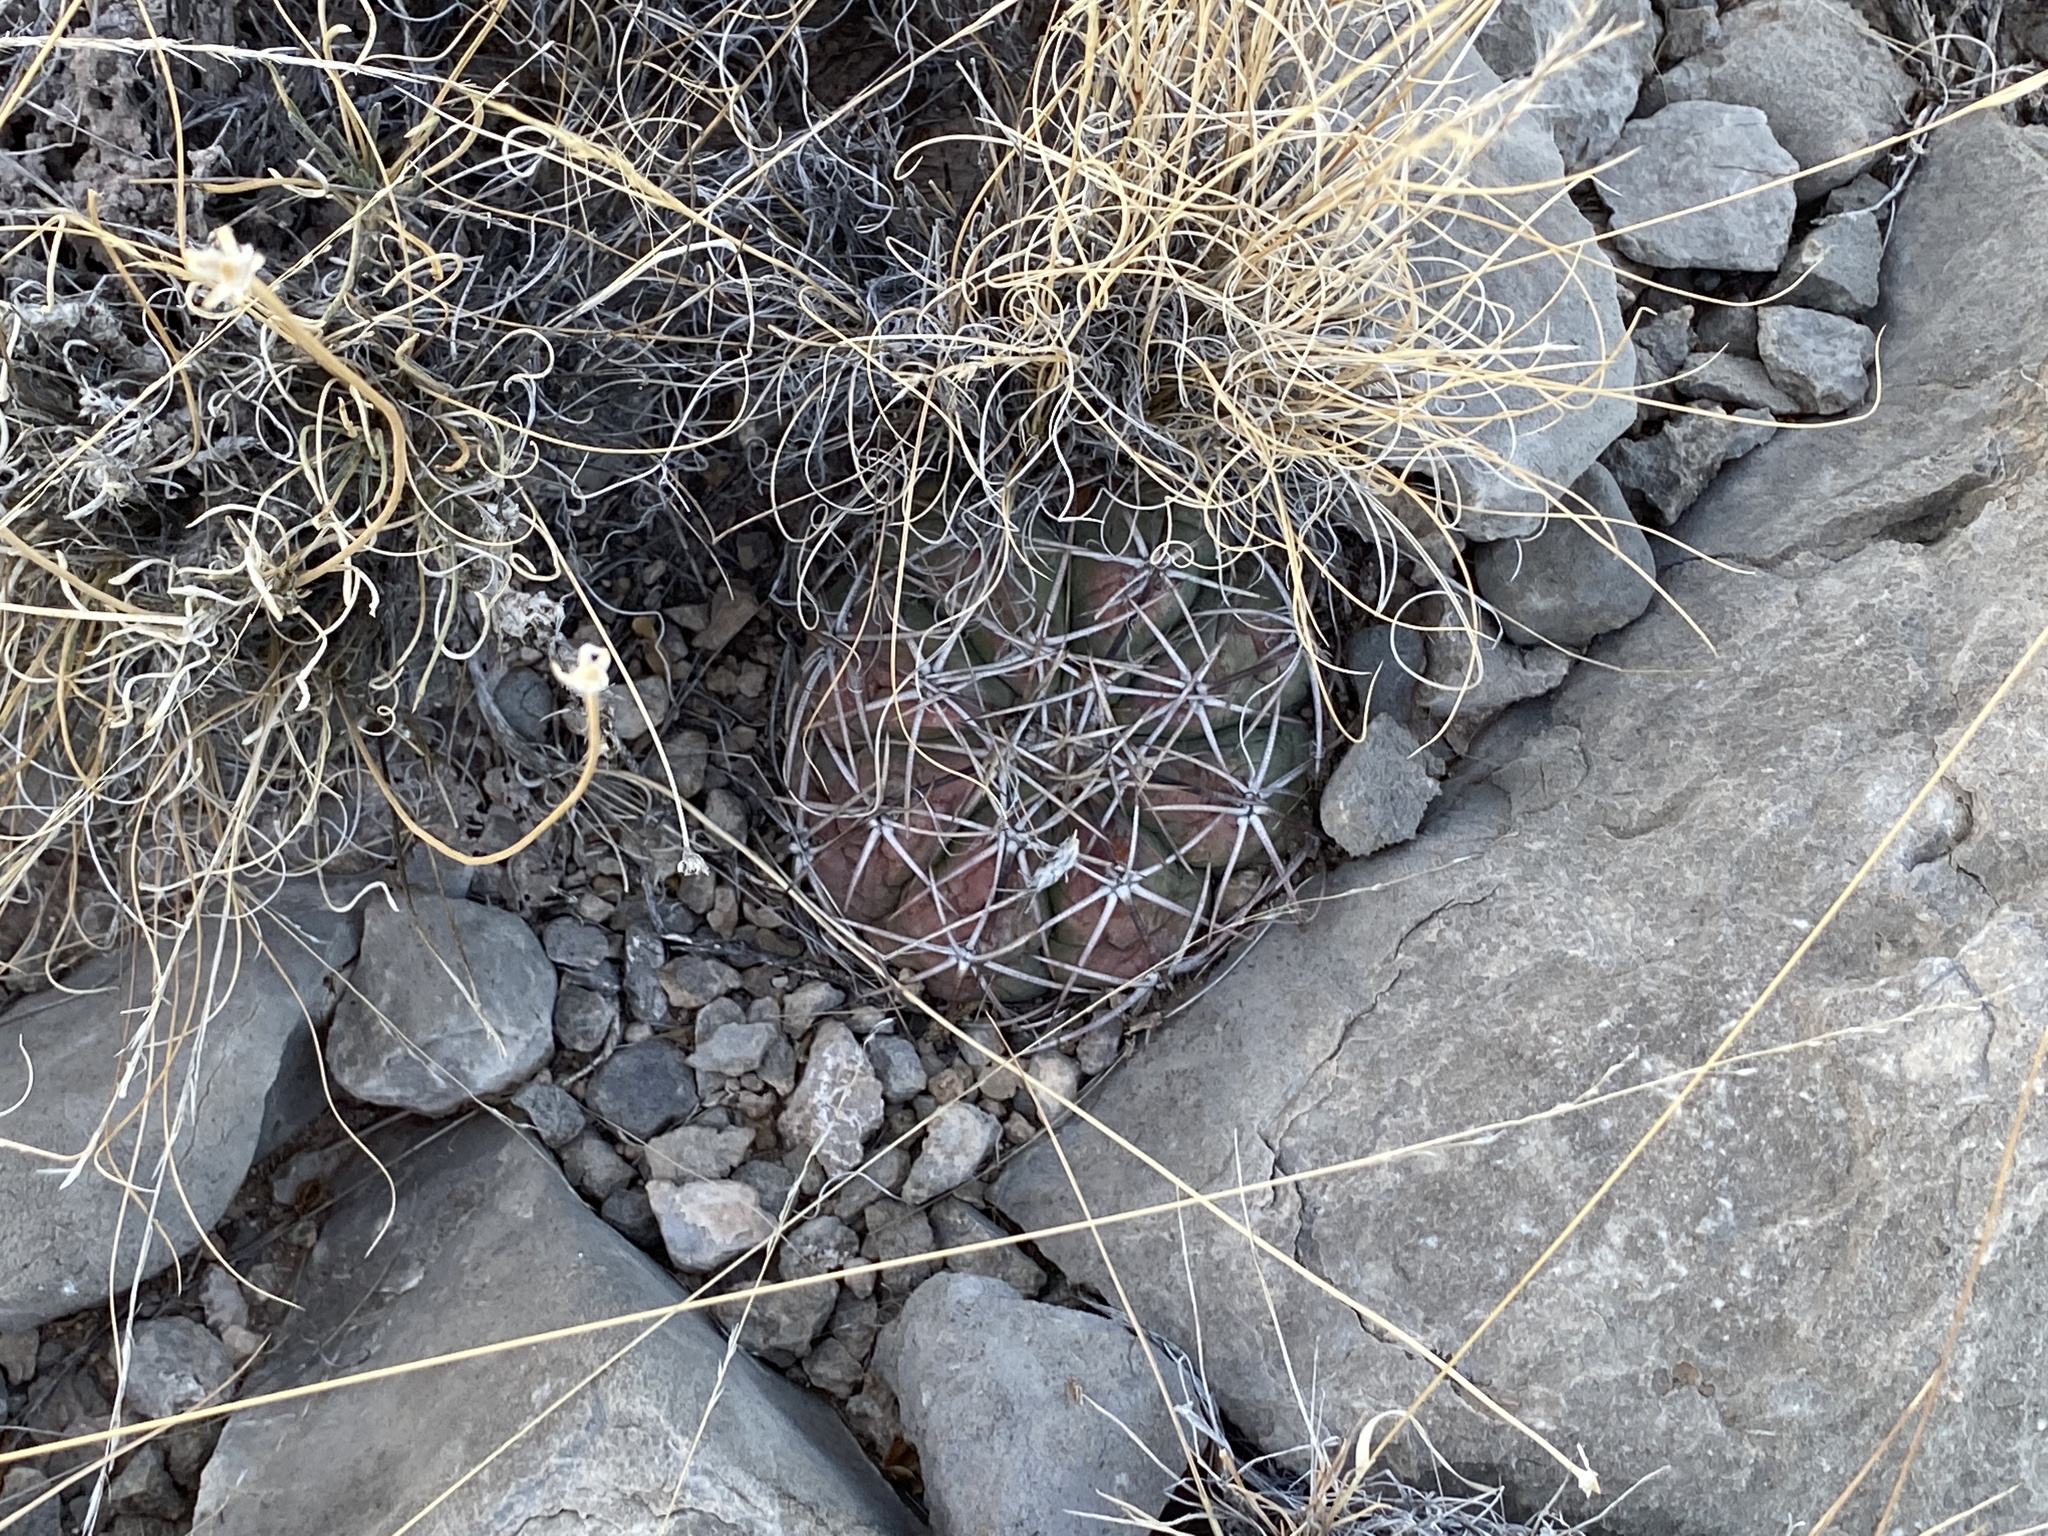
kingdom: Plantae
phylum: Tracheophyta
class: Magnoliopsida
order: Caryophyllales
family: Cactaceae
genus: Echinocactus
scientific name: Echinocactus horizonthalonius
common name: Devilshead
